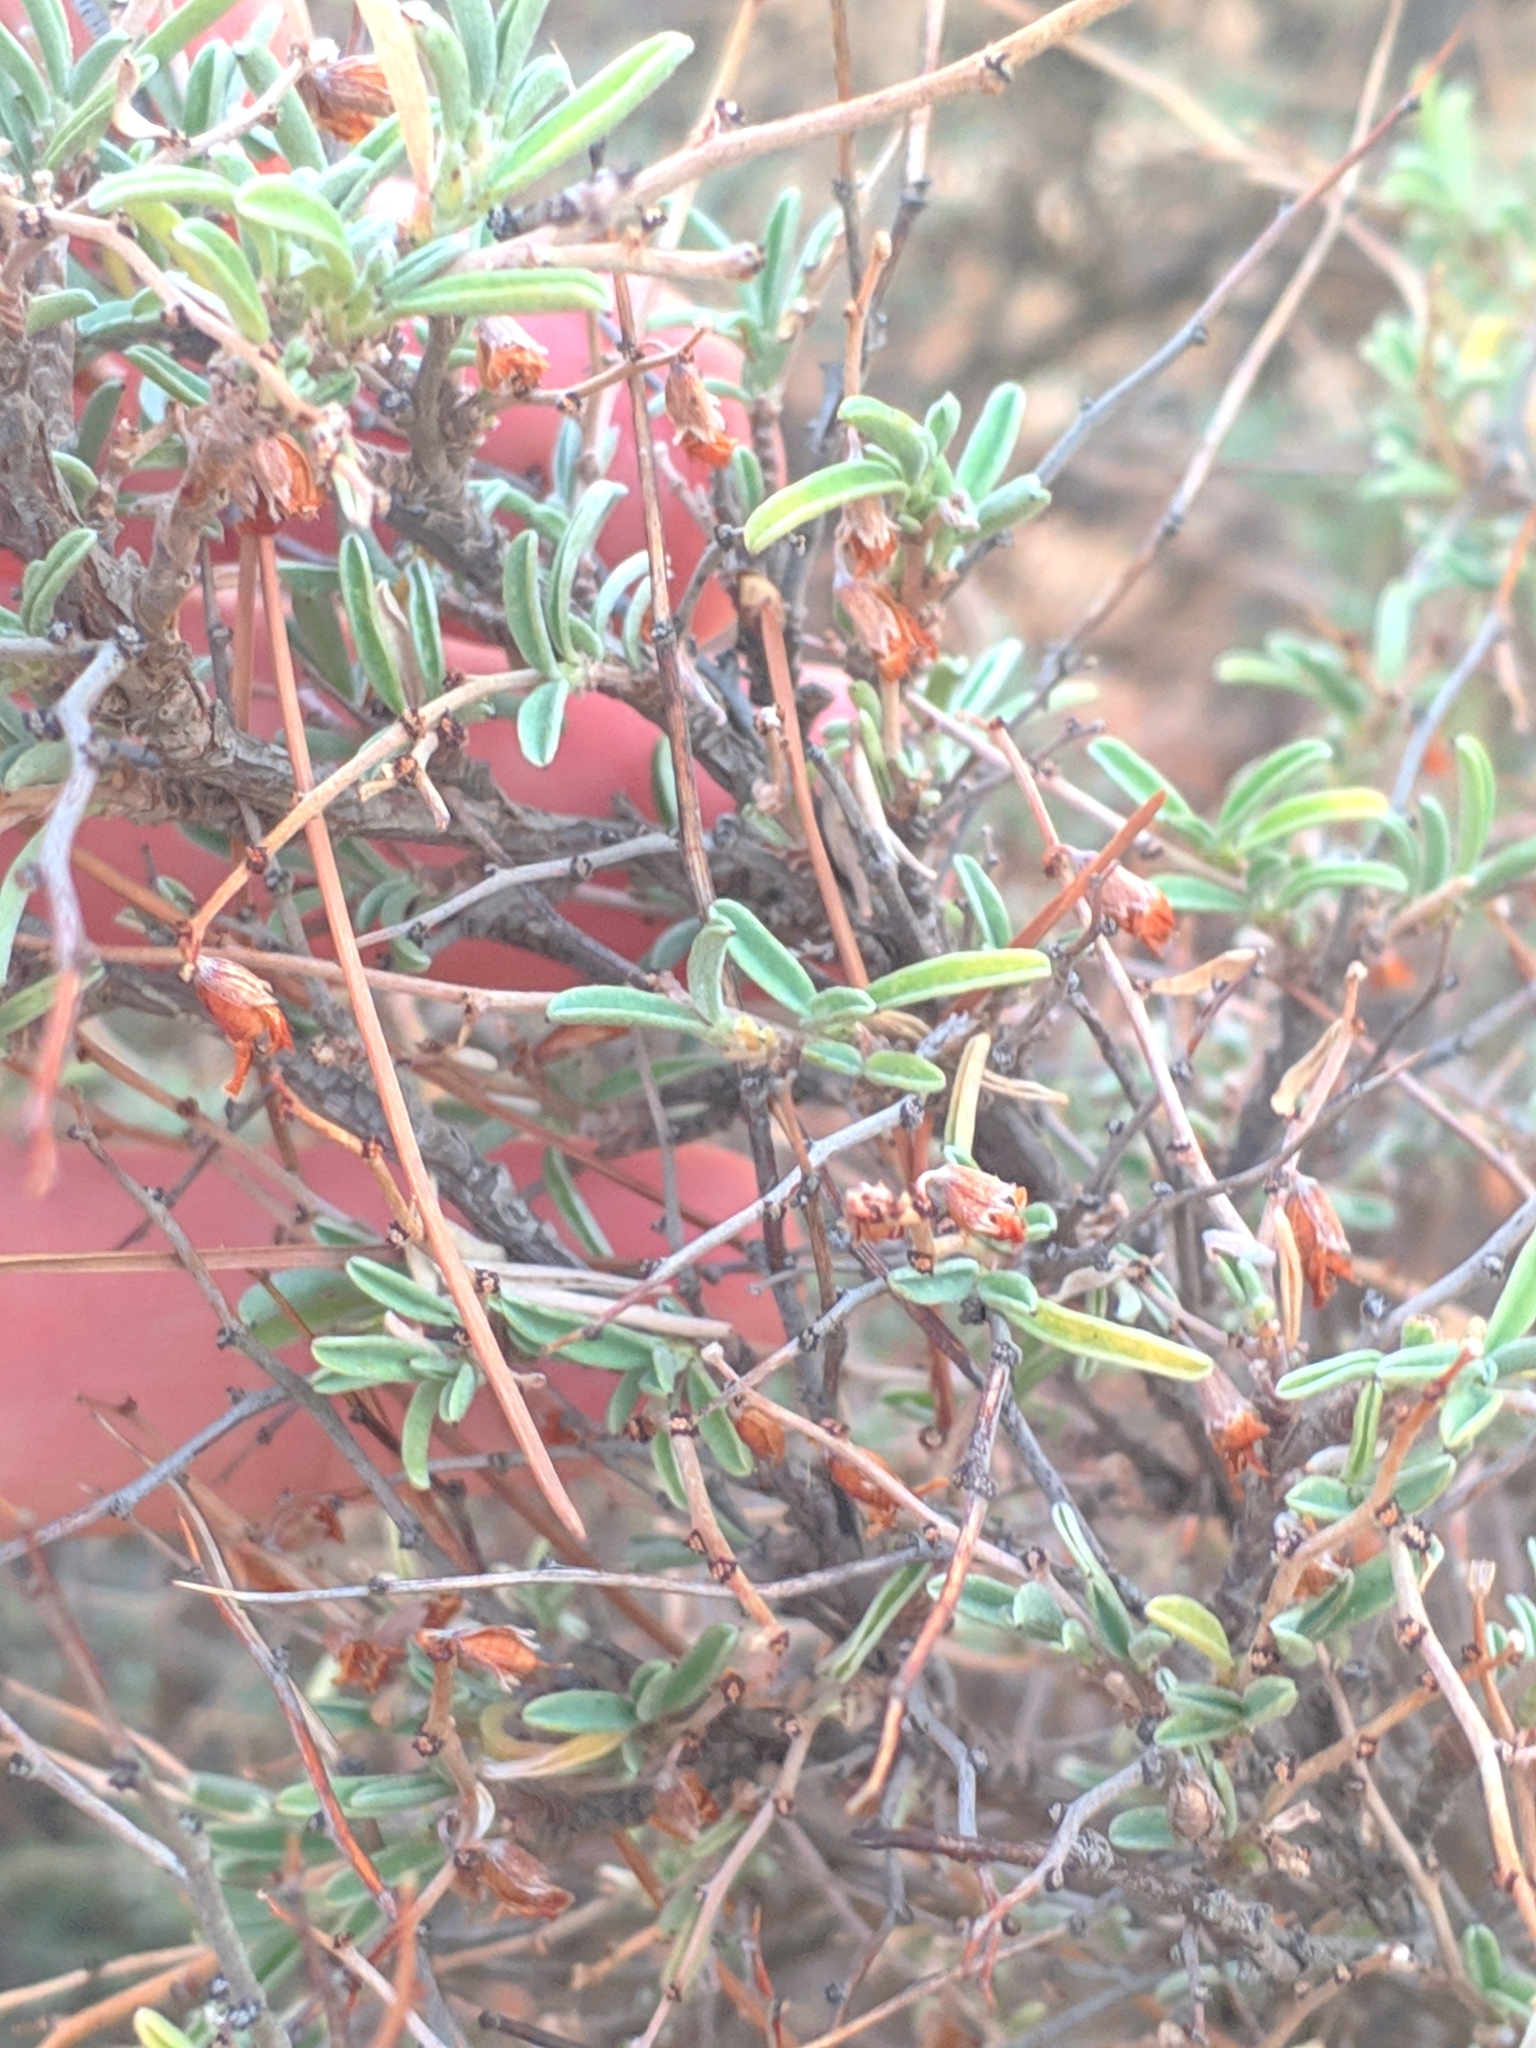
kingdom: Plantae
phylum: Tracheophyta
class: Magnoliopsida
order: Fabales
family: Fabaceae
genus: Anthyllis
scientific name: Anthyllis hermanniae
